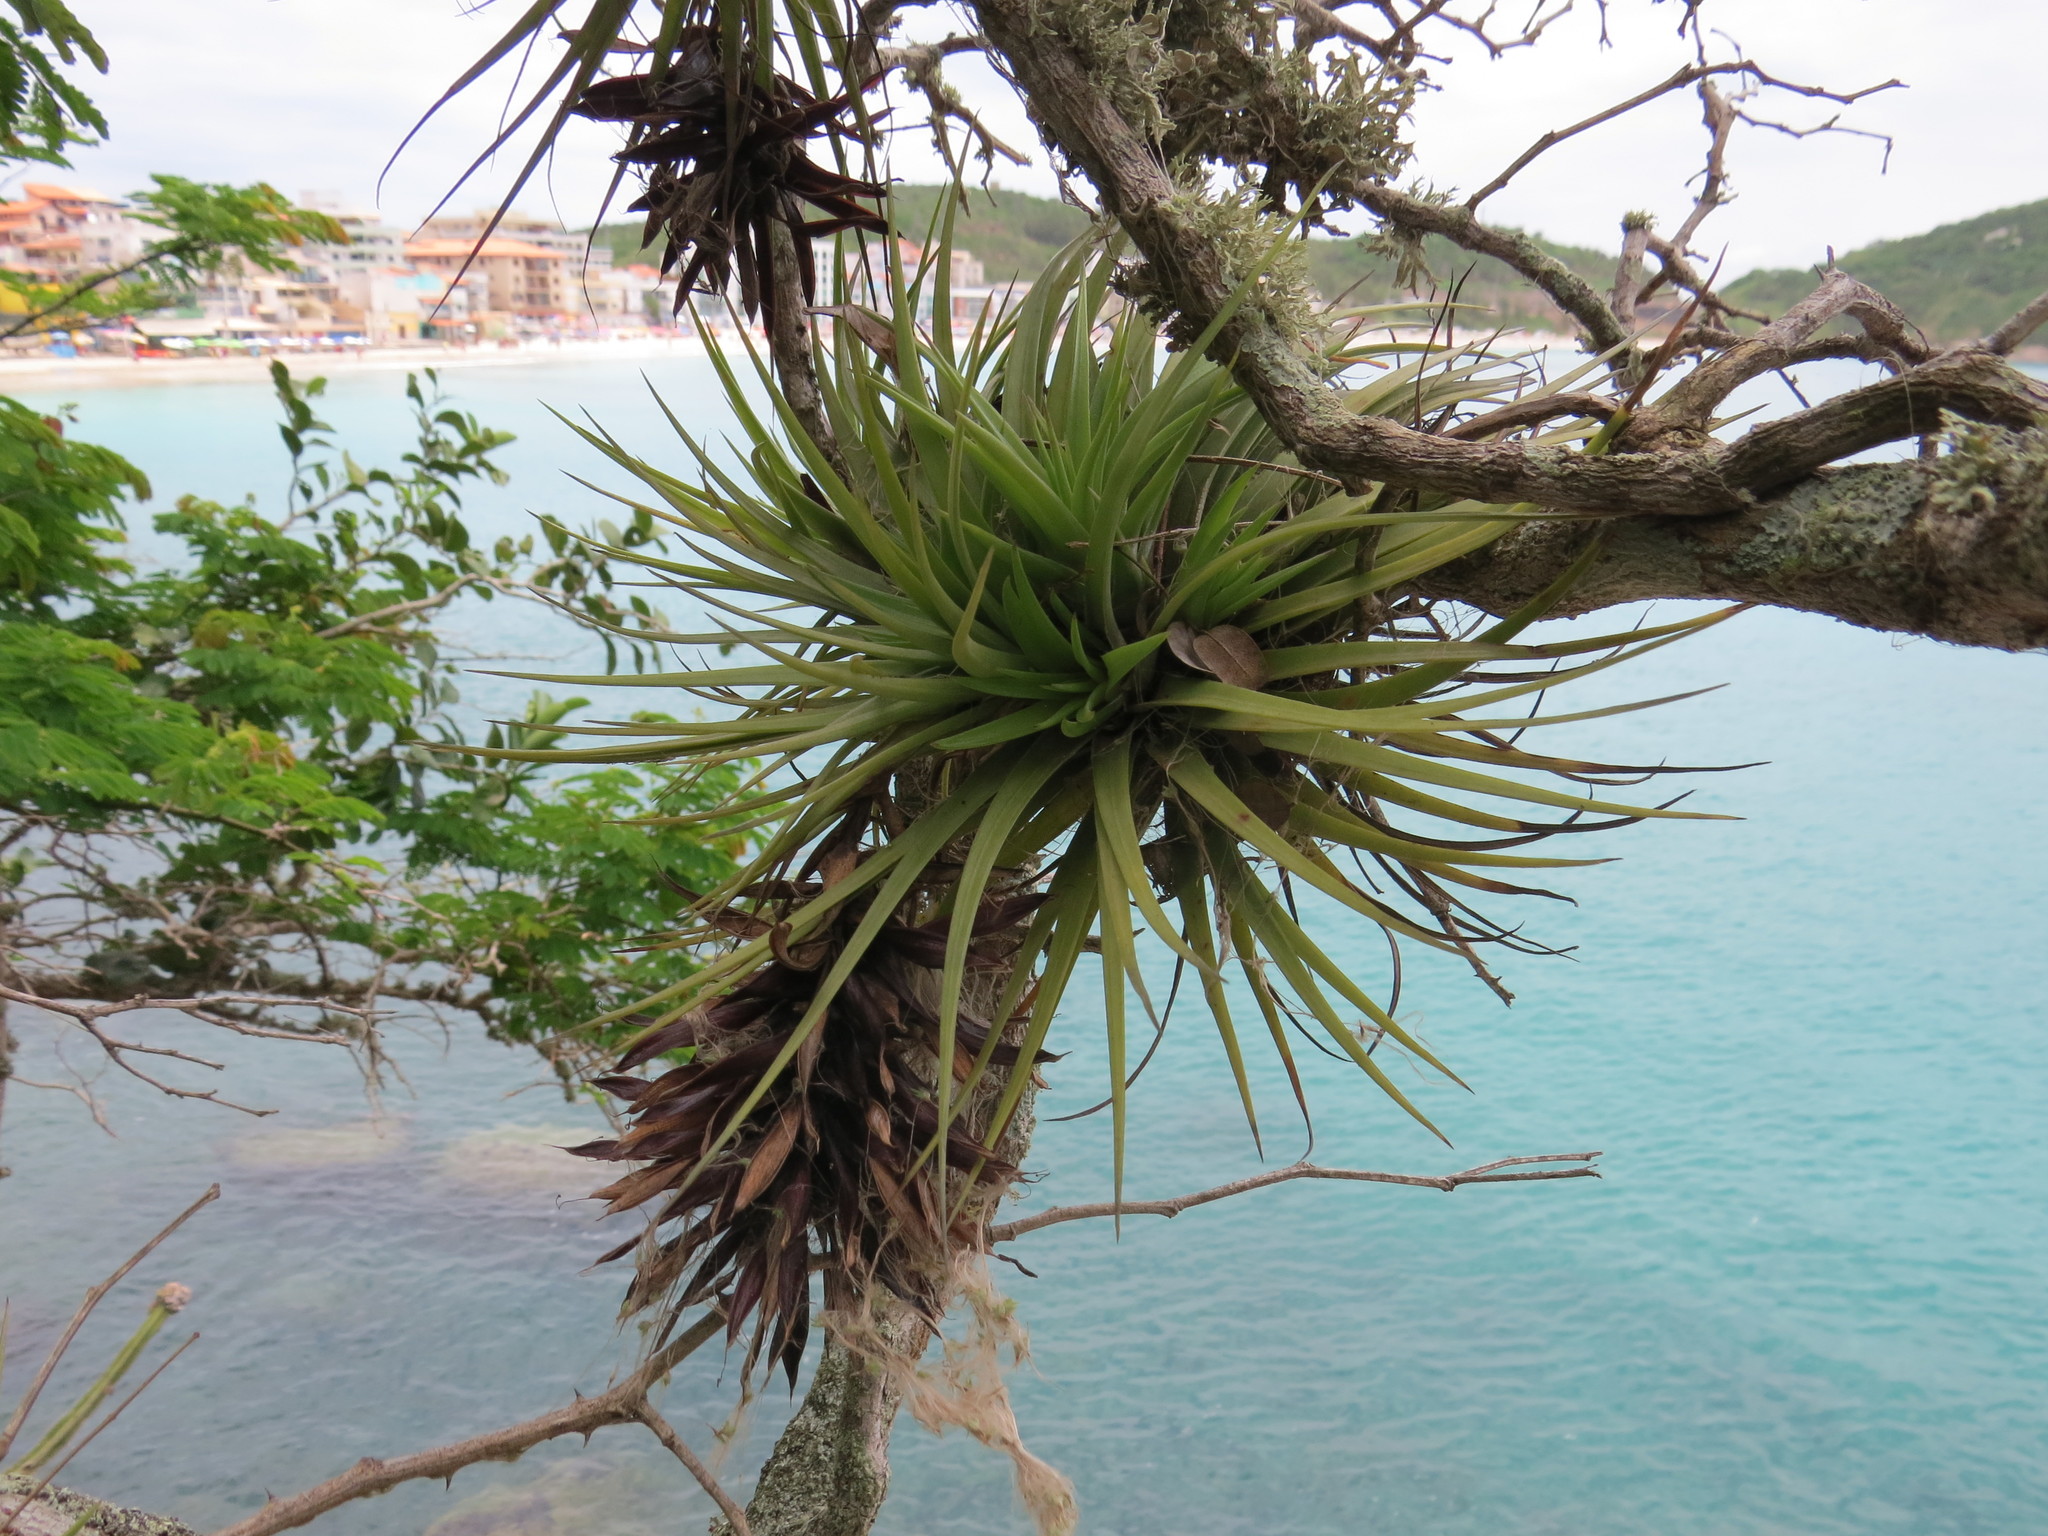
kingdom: Plantae
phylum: Tracheophyta
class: Liliopsida
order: Poales
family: Bromeliaceae
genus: Tillandsia
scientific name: Tillandsia stricta
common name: Airplant
